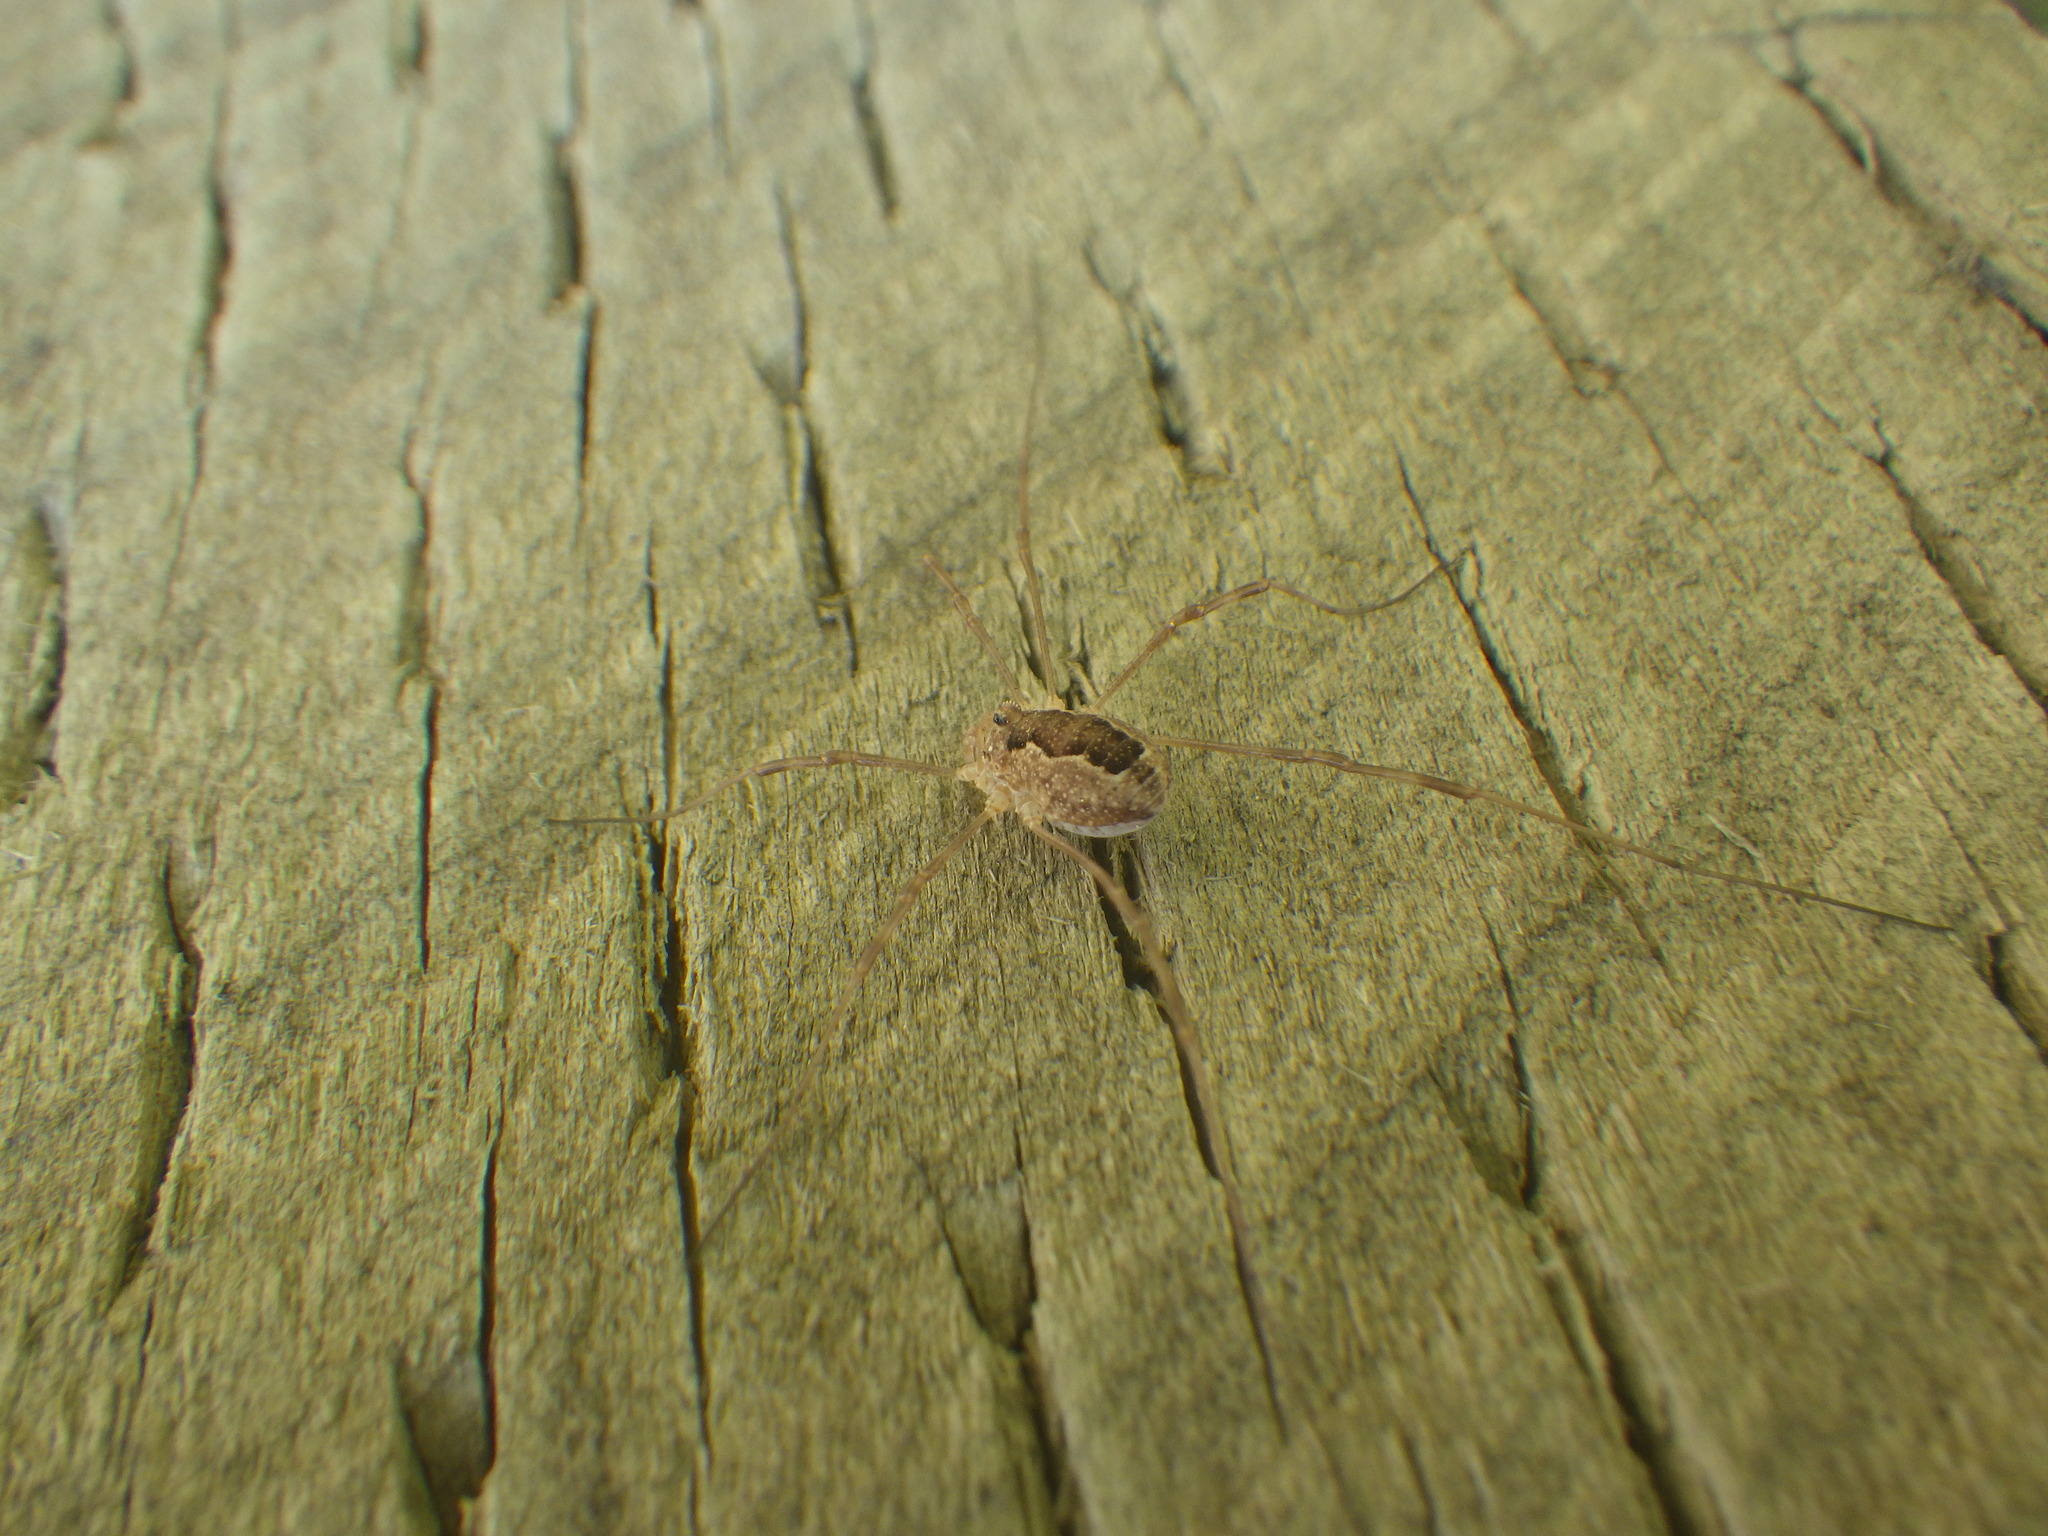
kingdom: Animalia
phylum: Arthropoda
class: Arachnida
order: Opiliones
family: Phalangiidae
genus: Rilaena
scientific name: Rilaena triangularis
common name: Spring harvestman
